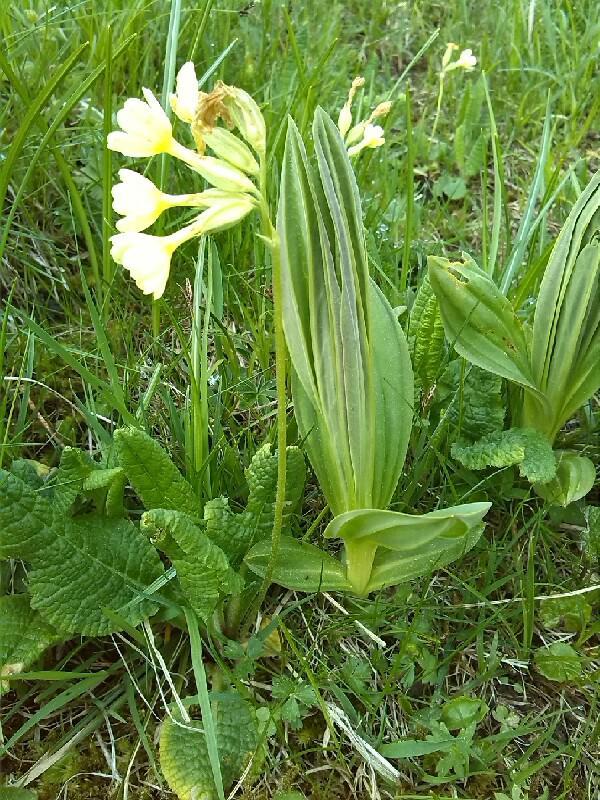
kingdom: Plantae
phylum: Tracheophyta
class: Magnoliopsida
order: Ericales
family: Primulaceae
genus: Primula
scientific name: Primula elatior
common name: Oxlip
